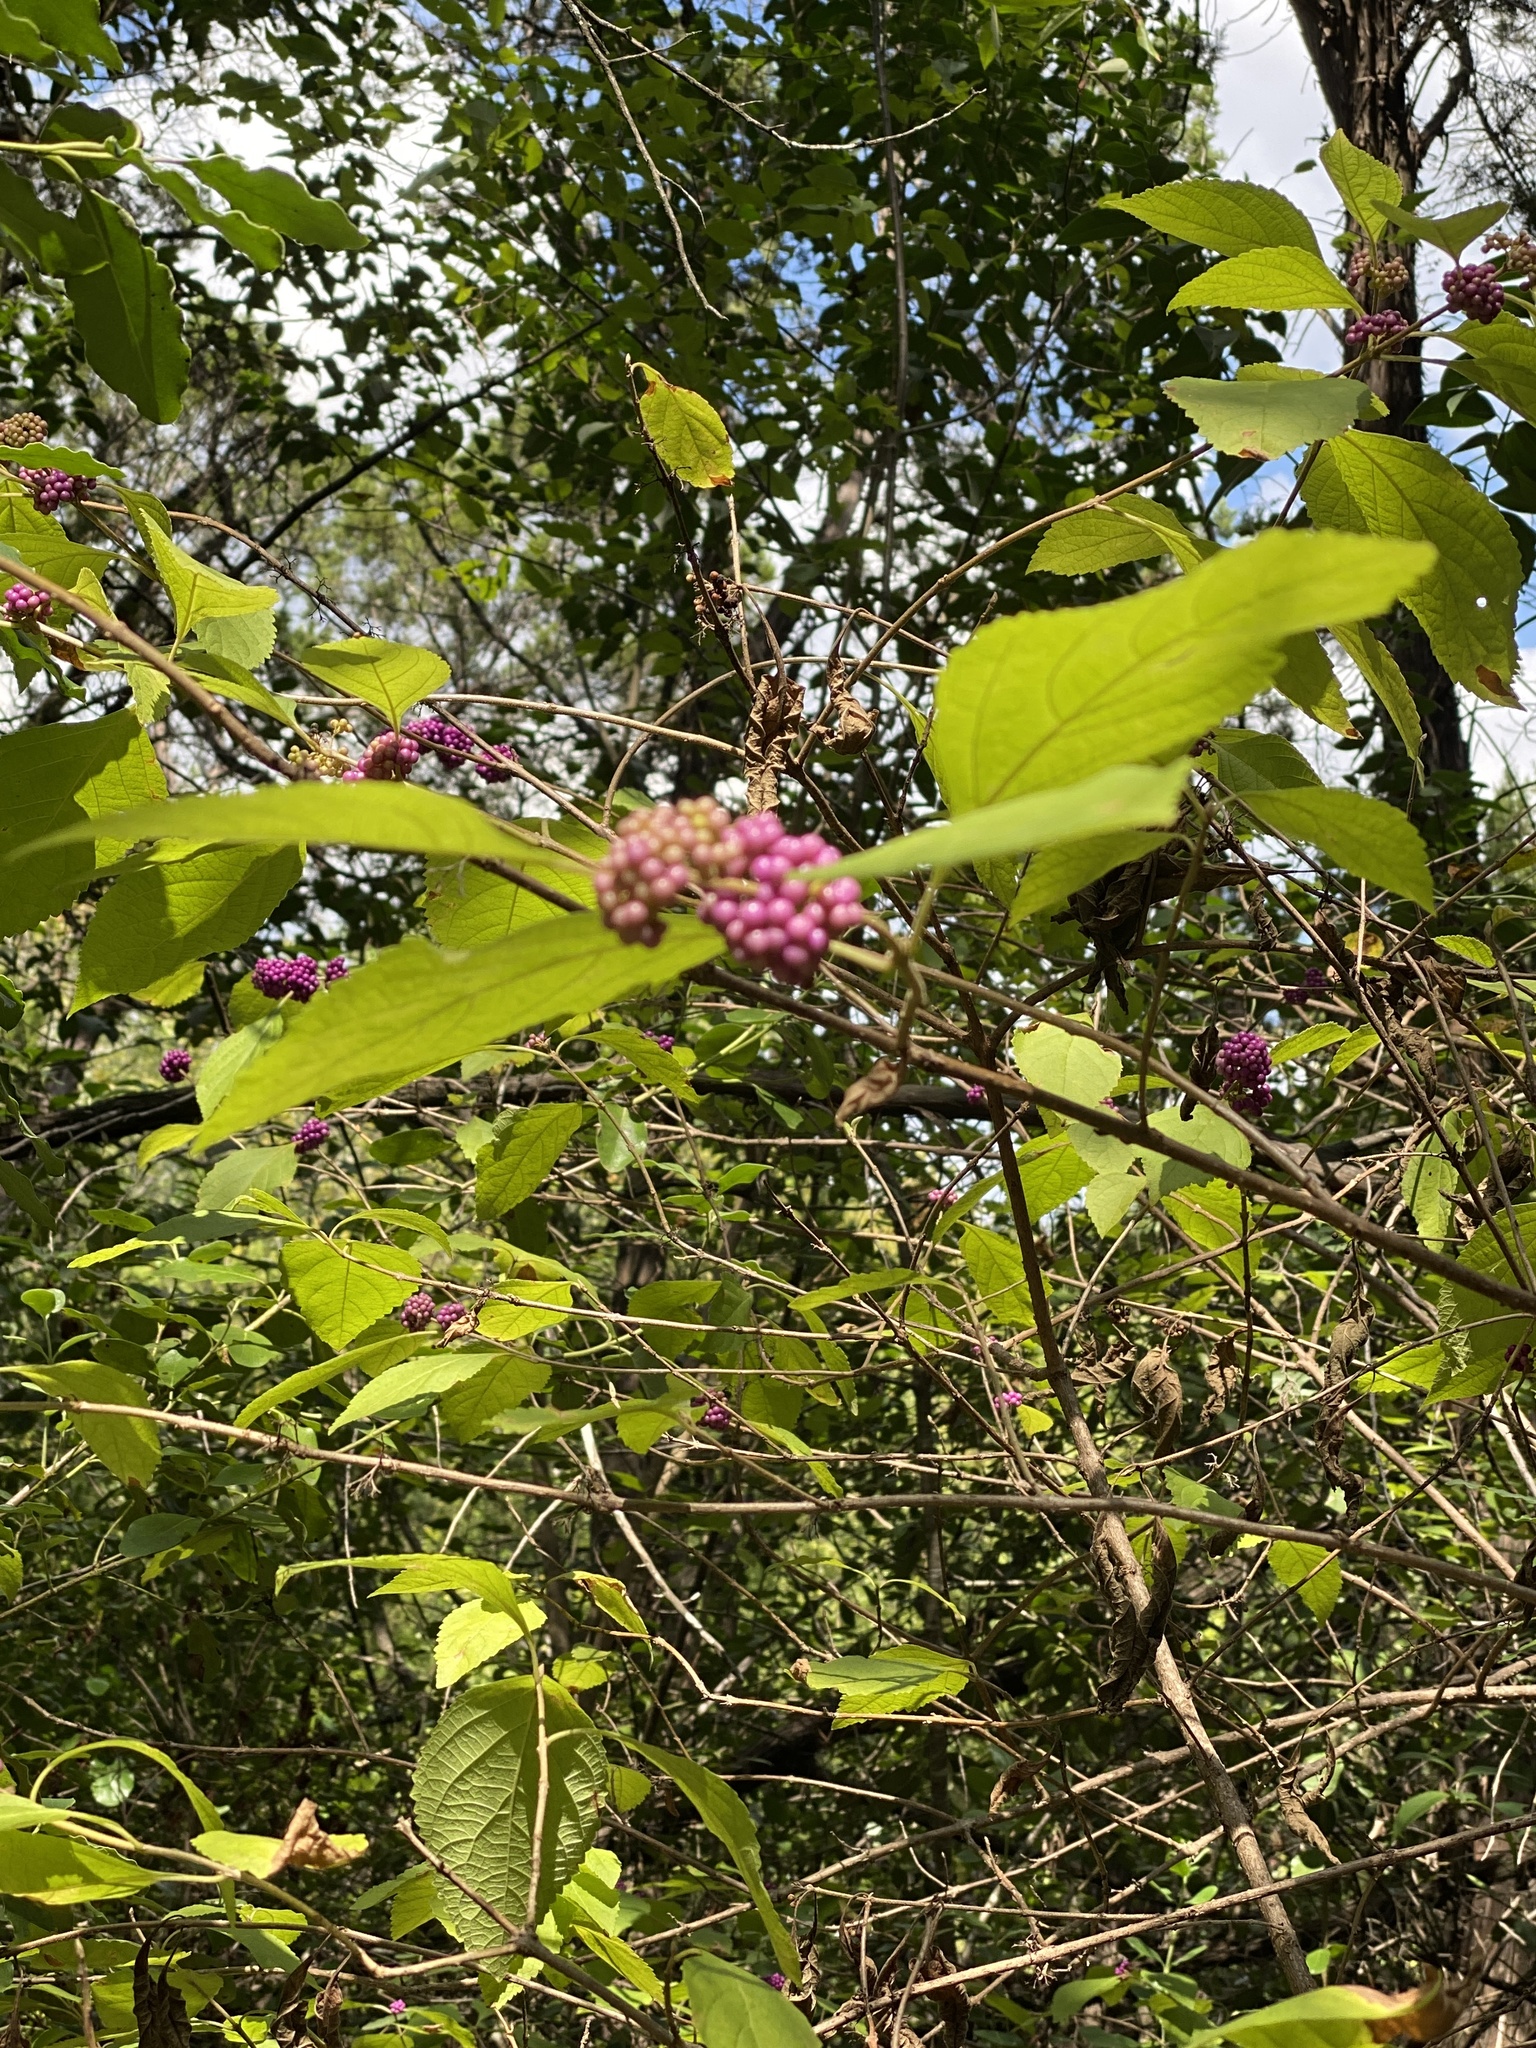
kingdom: Plantae
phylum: Tracheophyta
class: Magnoliopsida
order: Lamiales
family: Lamiaceae
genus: Callicarpa
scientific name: Callicarpa americana
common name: American beautyberry
